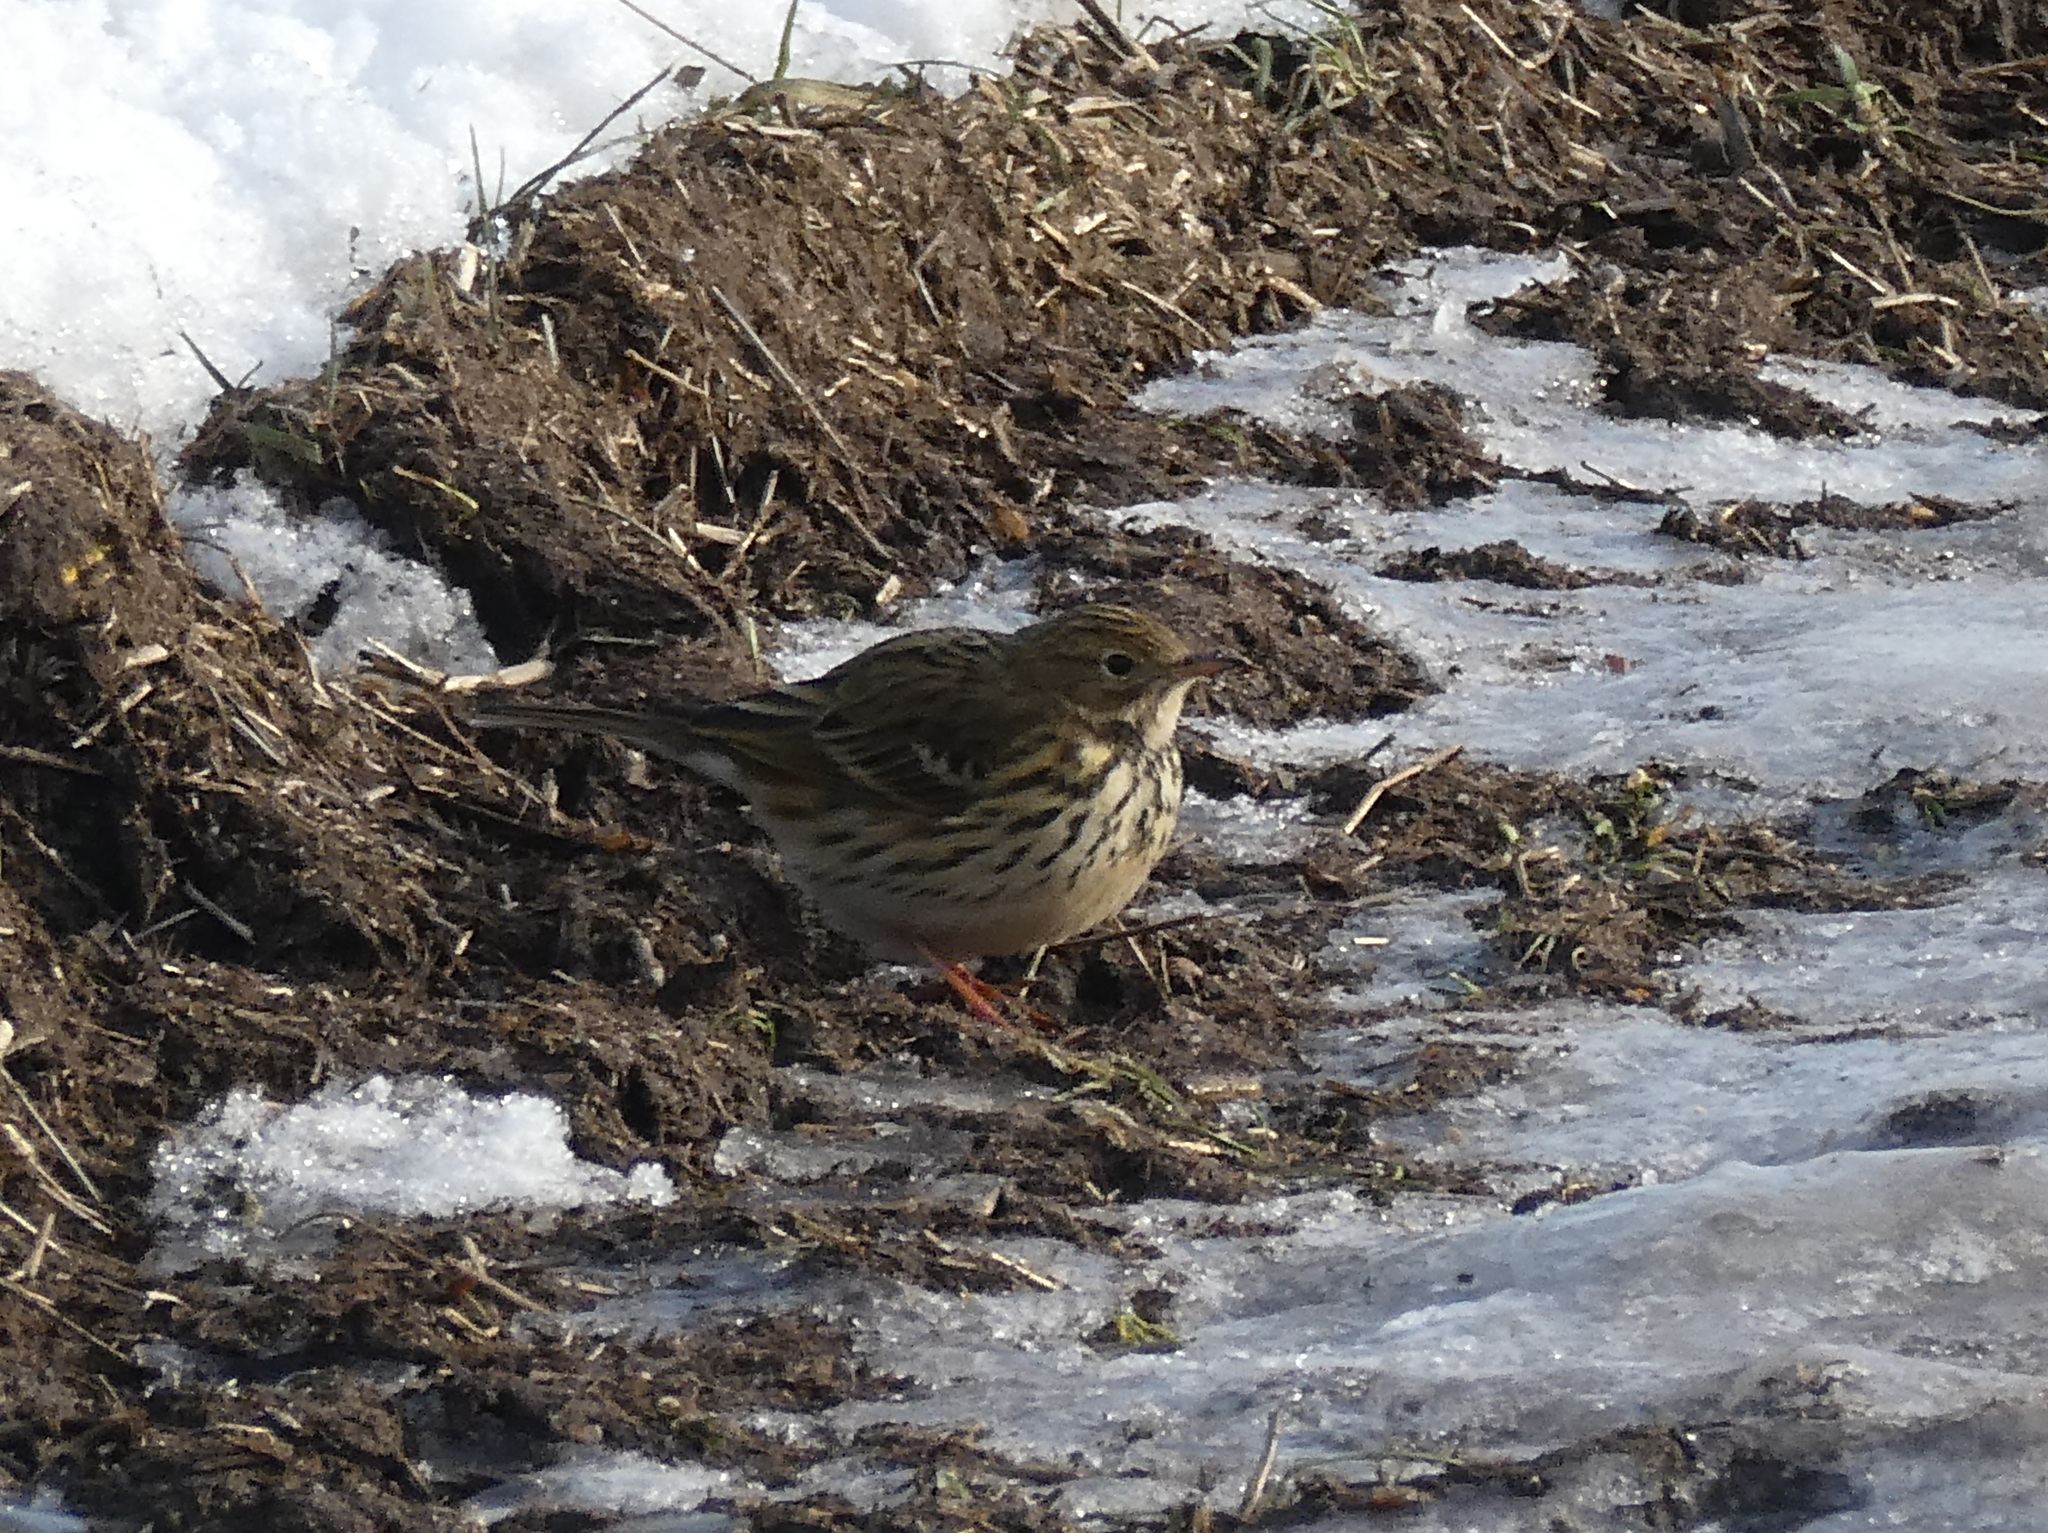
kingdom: Animalia
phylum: Chordata
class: Aves
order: Passeriformes
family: Motacillidae
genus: Anthus
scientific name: Anthus pratensis
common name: Meadow pipit
